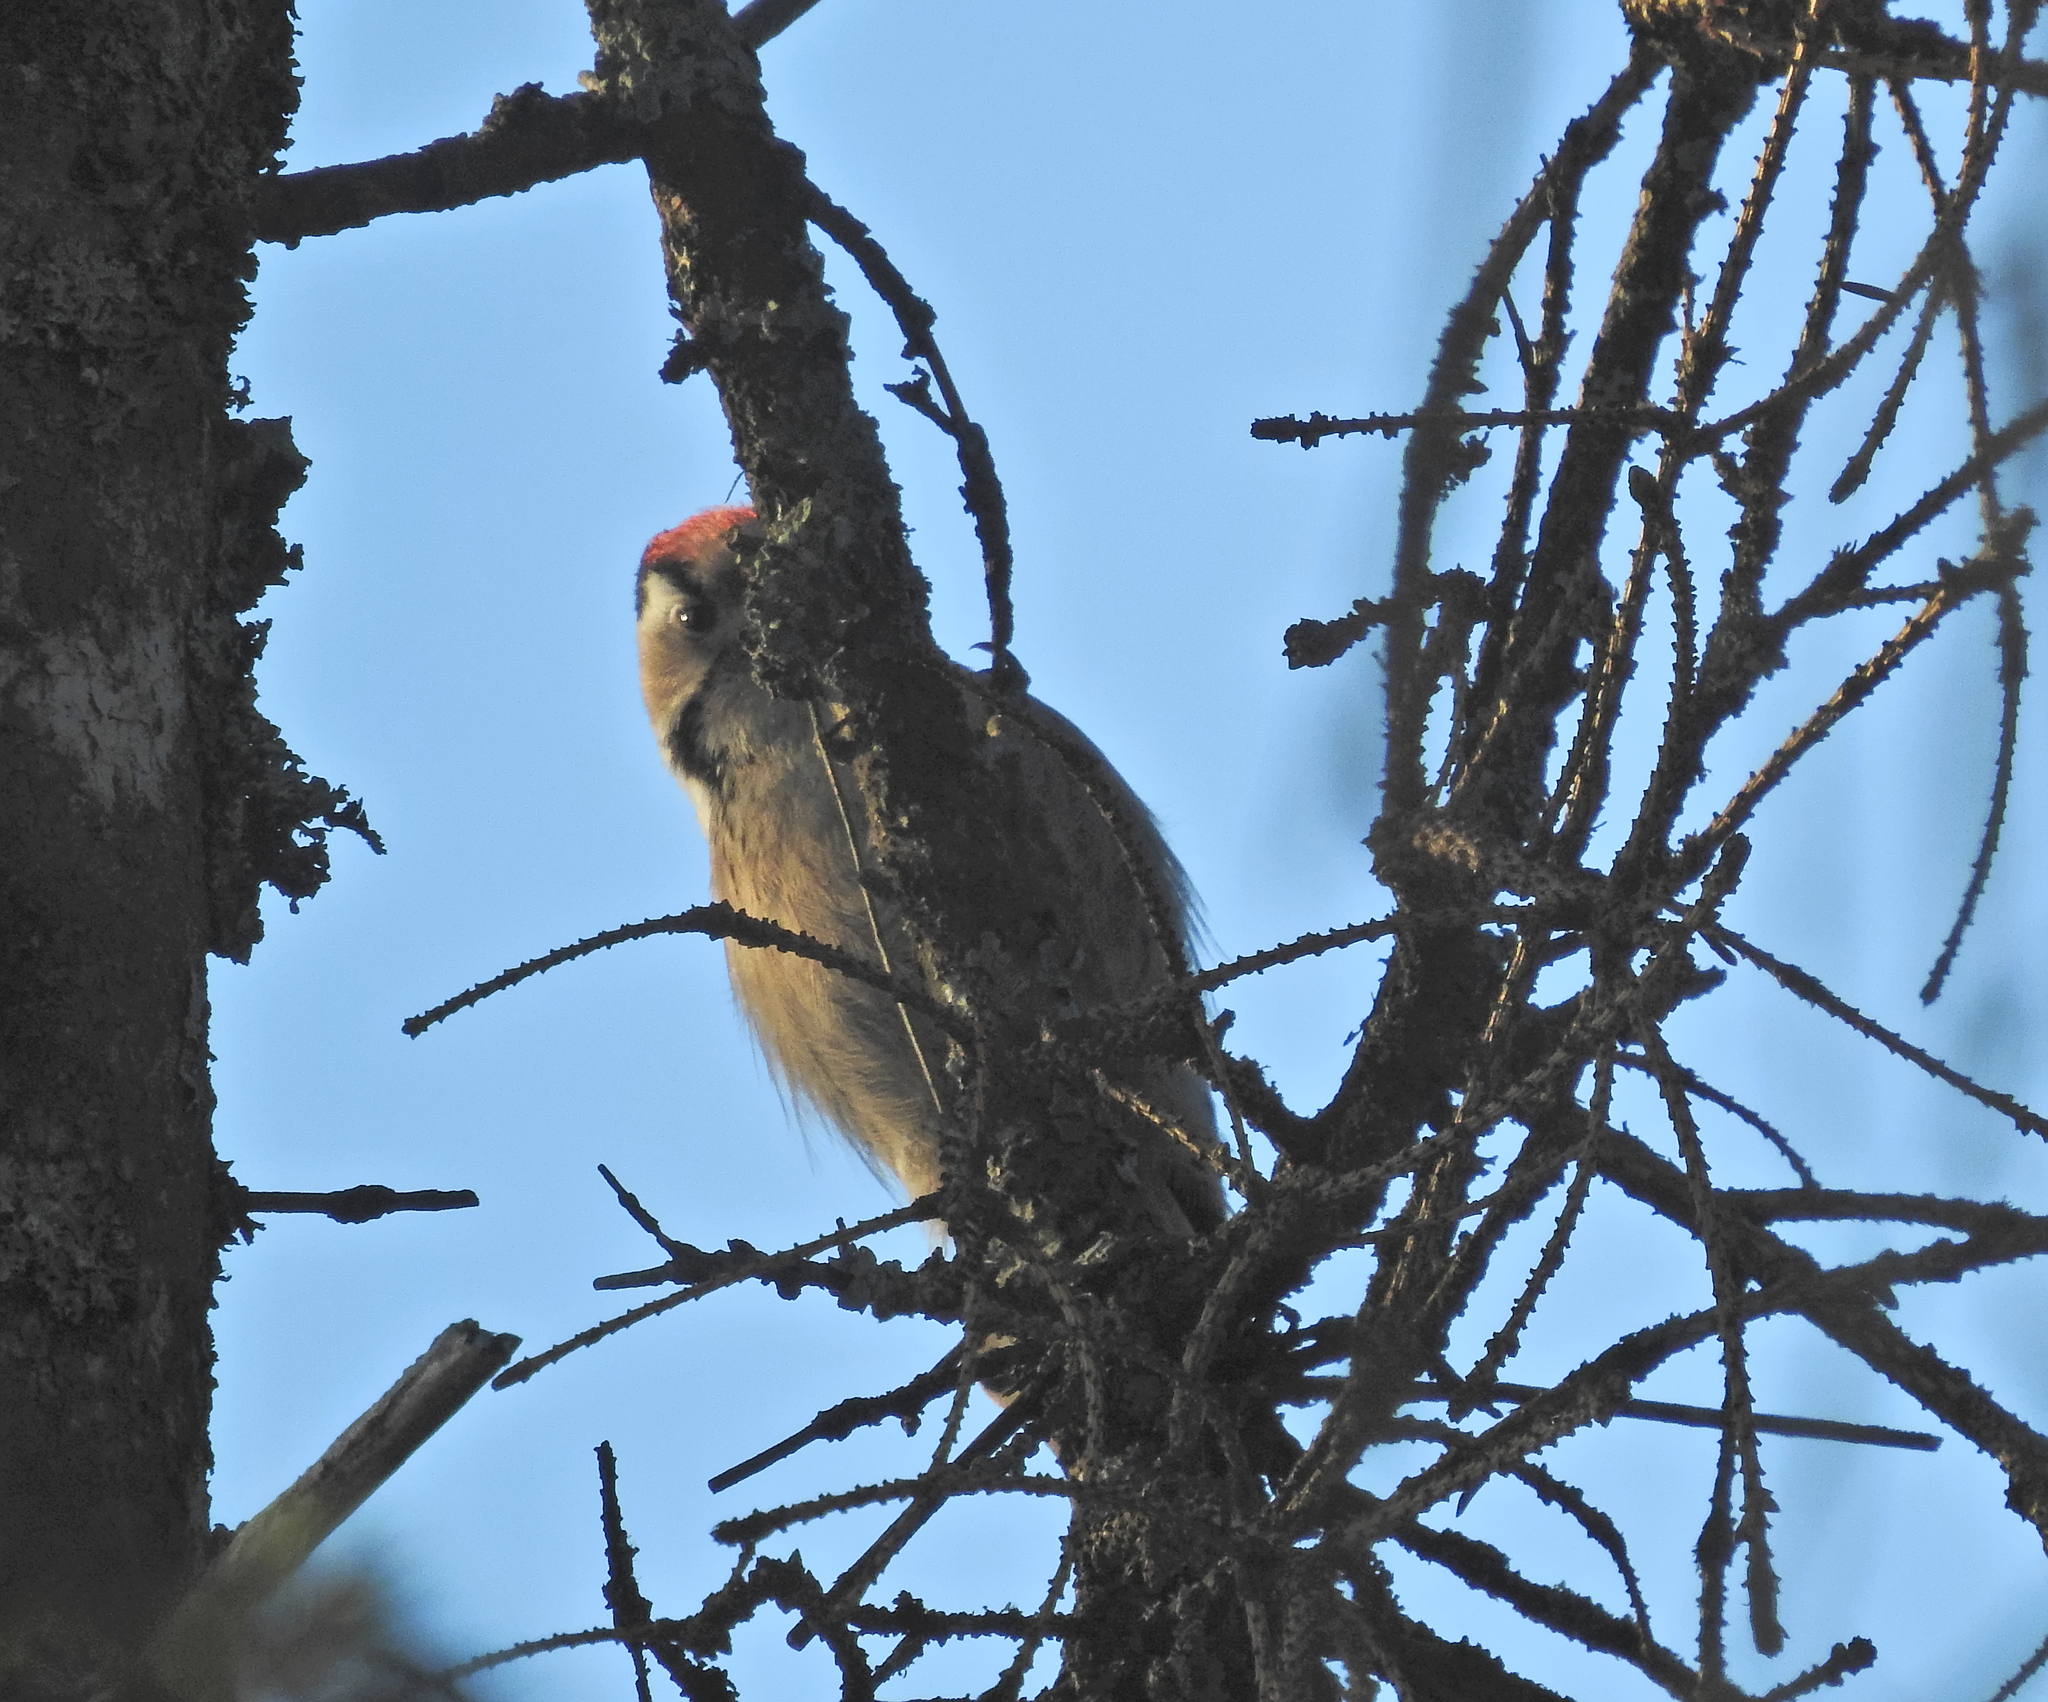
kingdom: Animalia
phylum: Chordata
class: Aves
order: Piciformes
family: Picidae
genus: Dryobates
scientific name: Dryobates minor
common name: Lesser spotted woodpecker
